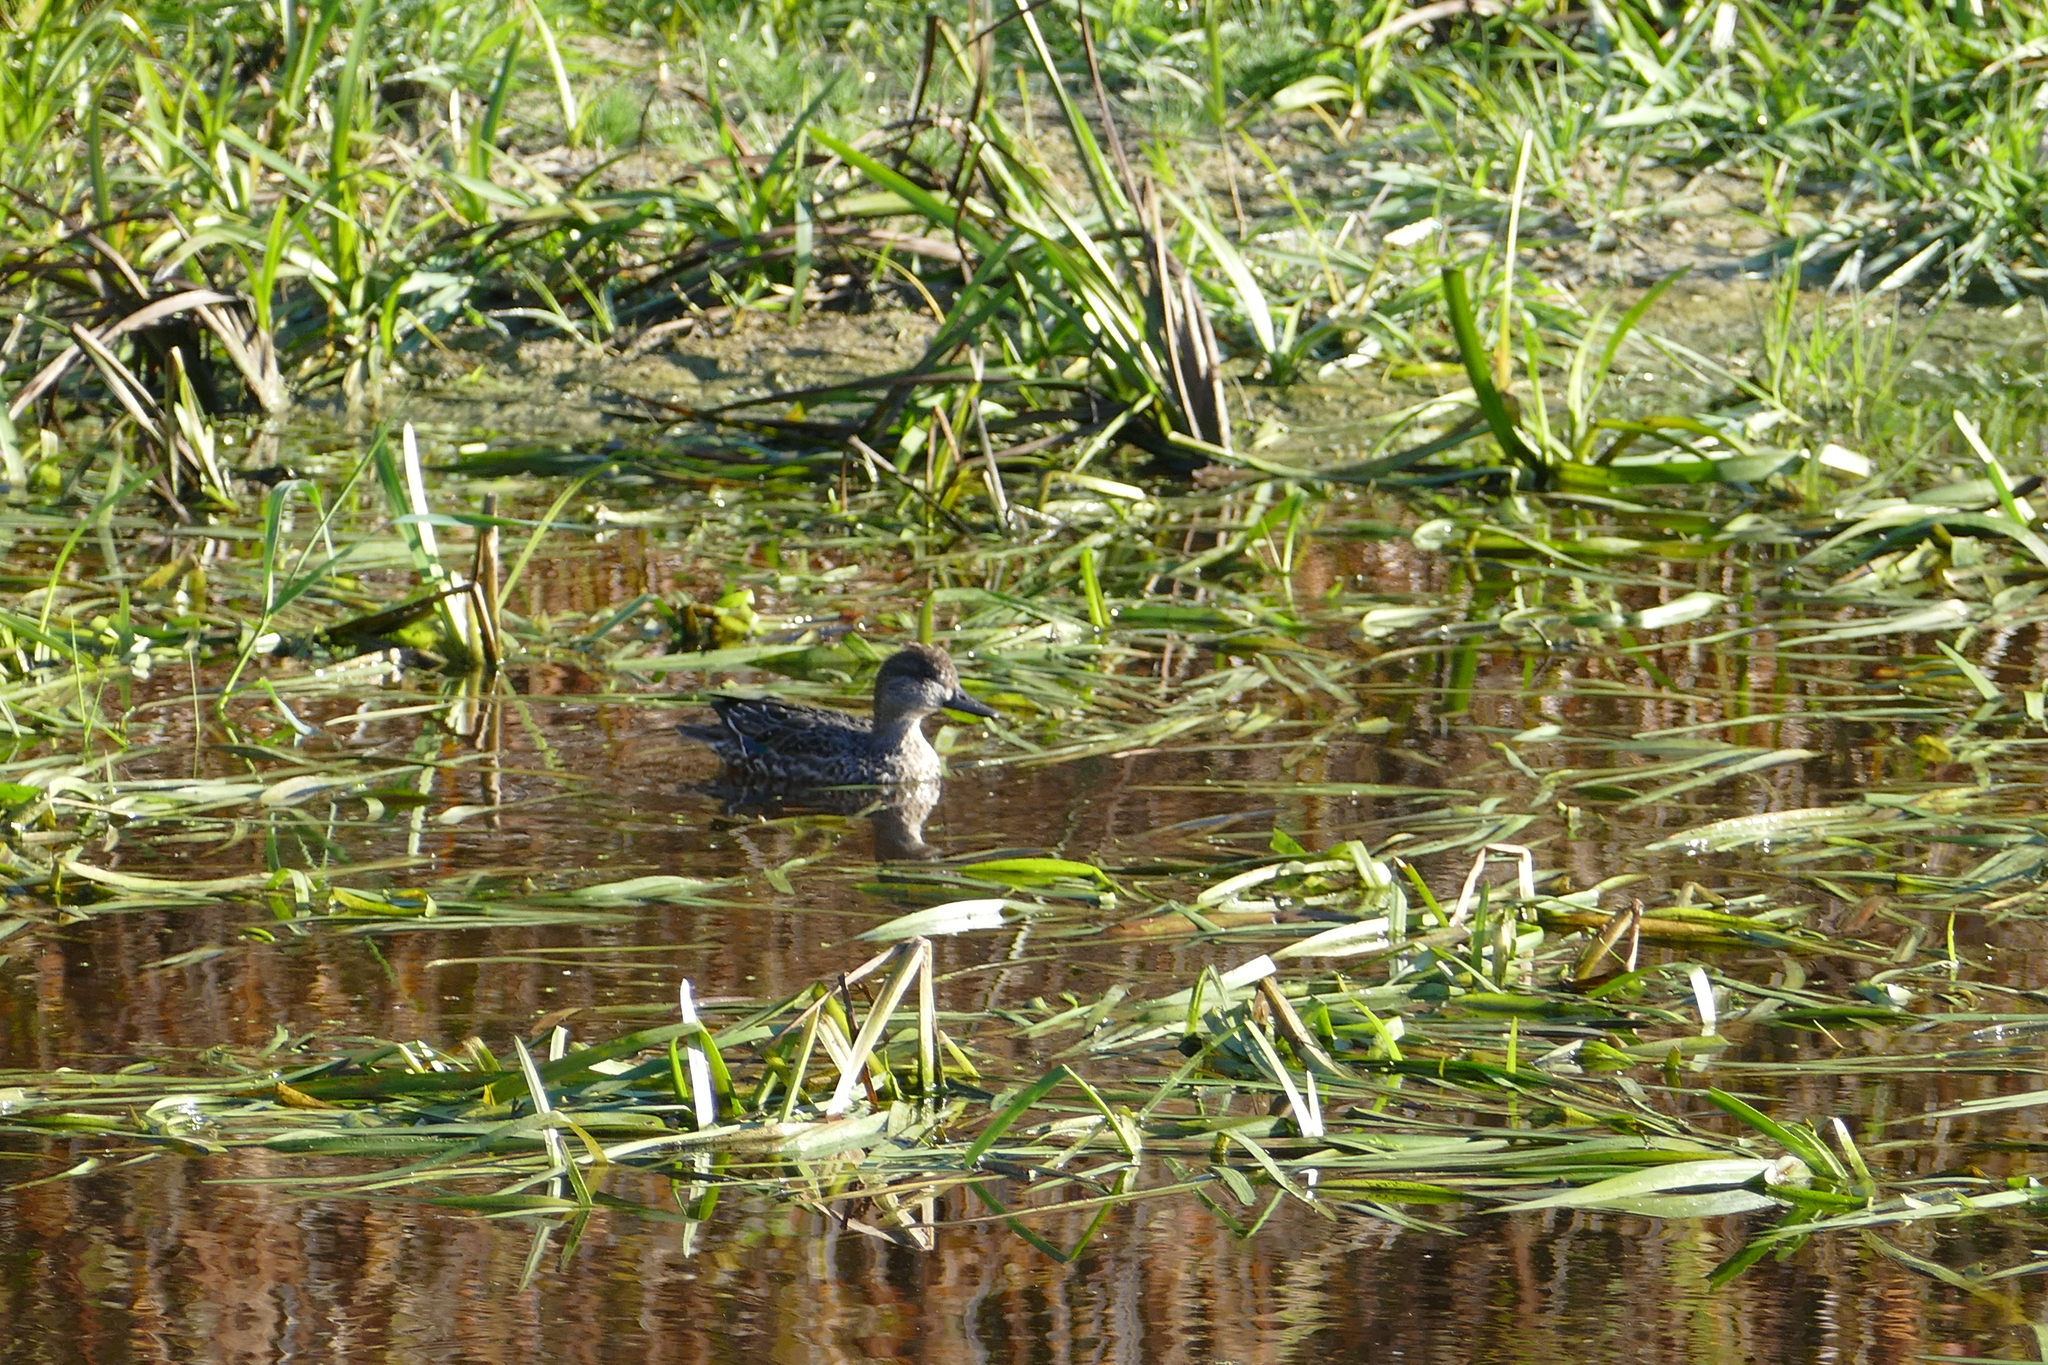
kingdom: Animalia
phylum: Chordata
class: Aves
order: Anseriformes
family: Anatidae
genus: Anas
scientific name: Anas crecca
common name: Eurasian teal
